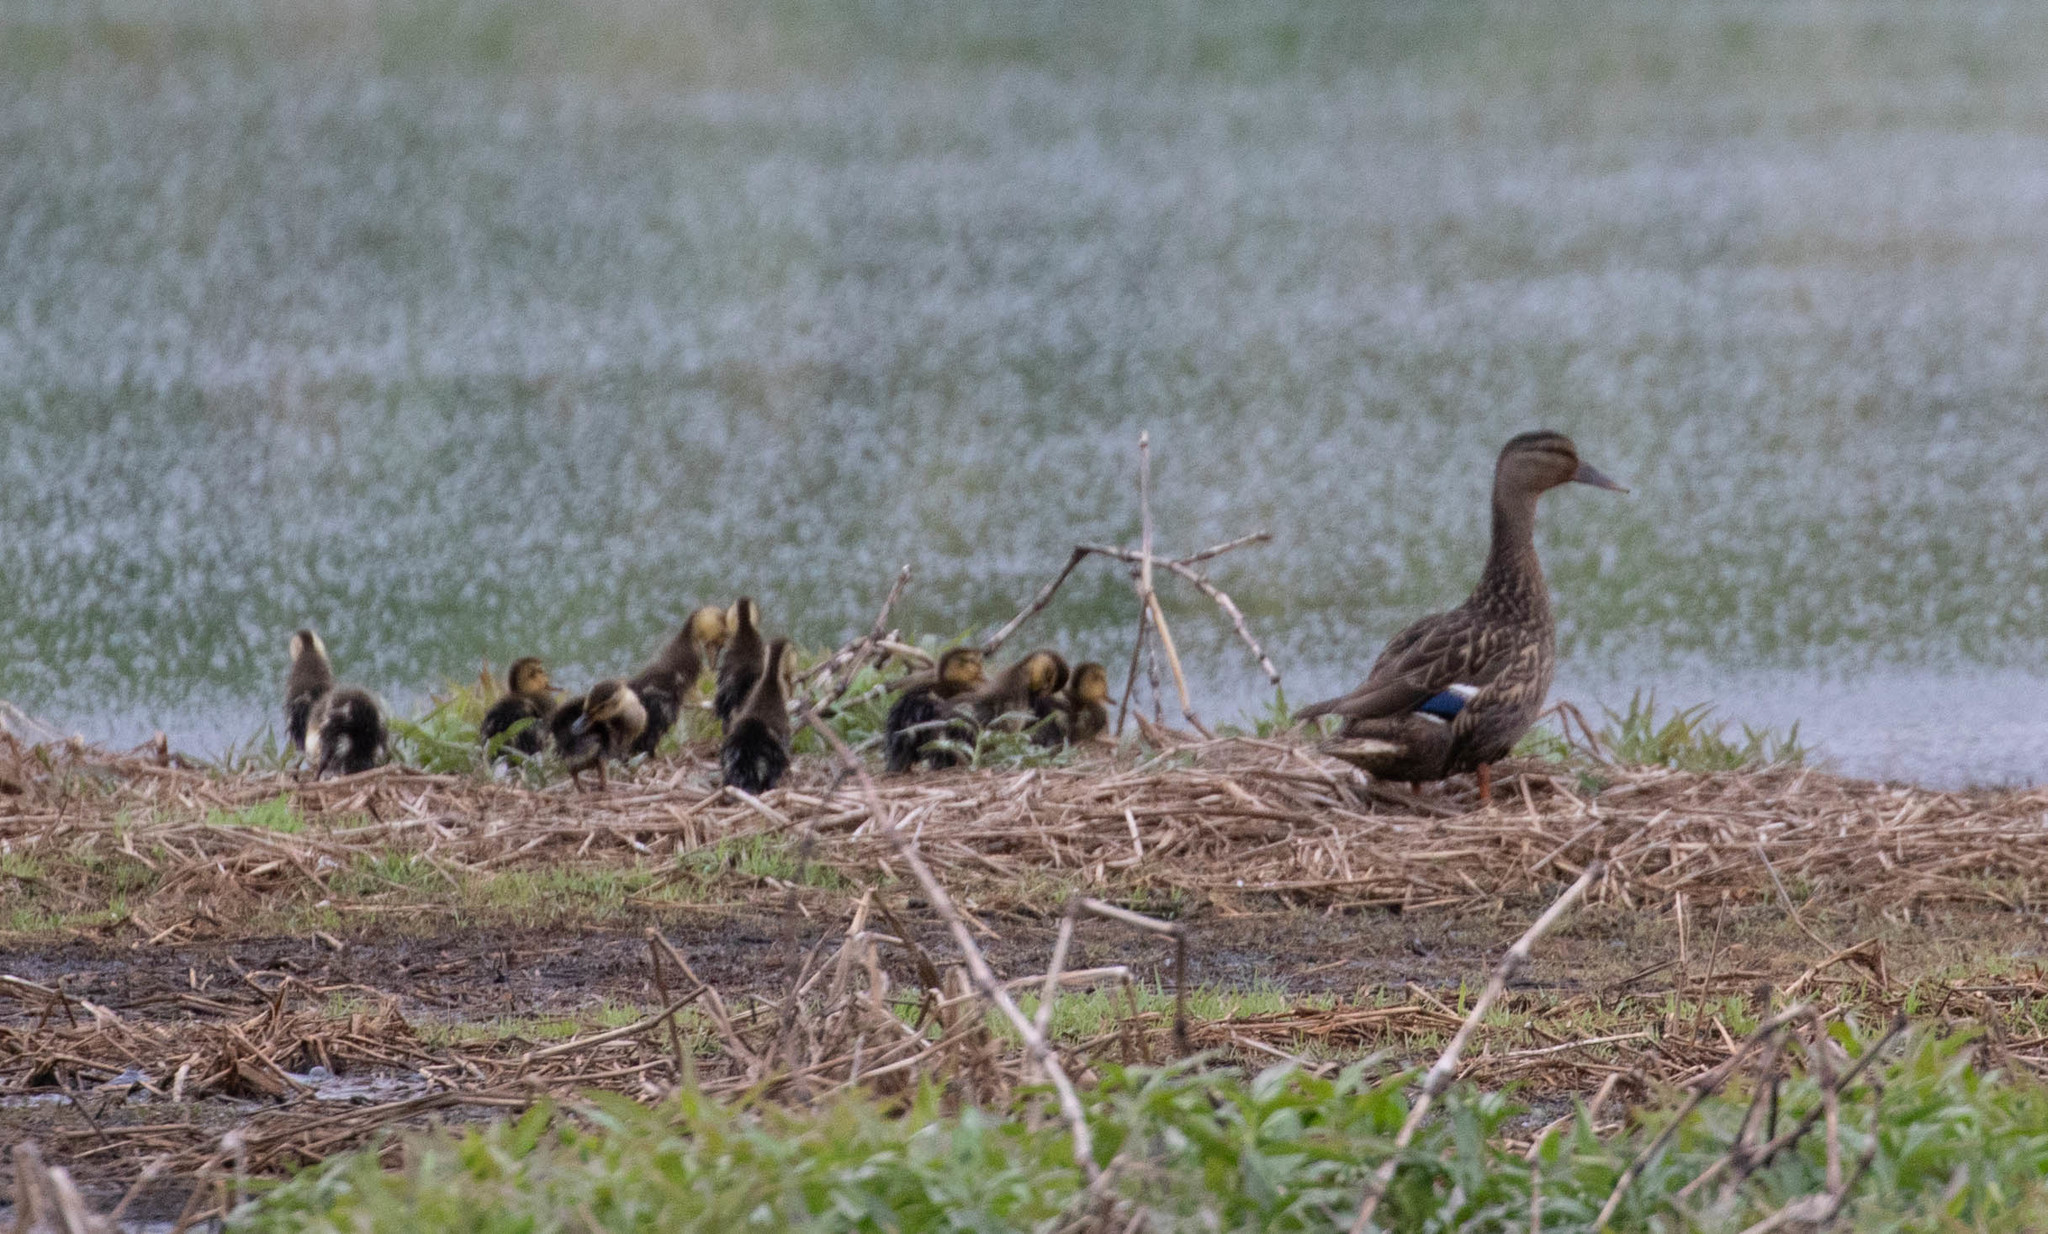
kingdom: Animalia
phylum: Chordata
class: Aves
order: Anseriformes
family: Anatidae
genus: Anas
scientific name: Anas platyrhynchos
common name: Mallard
